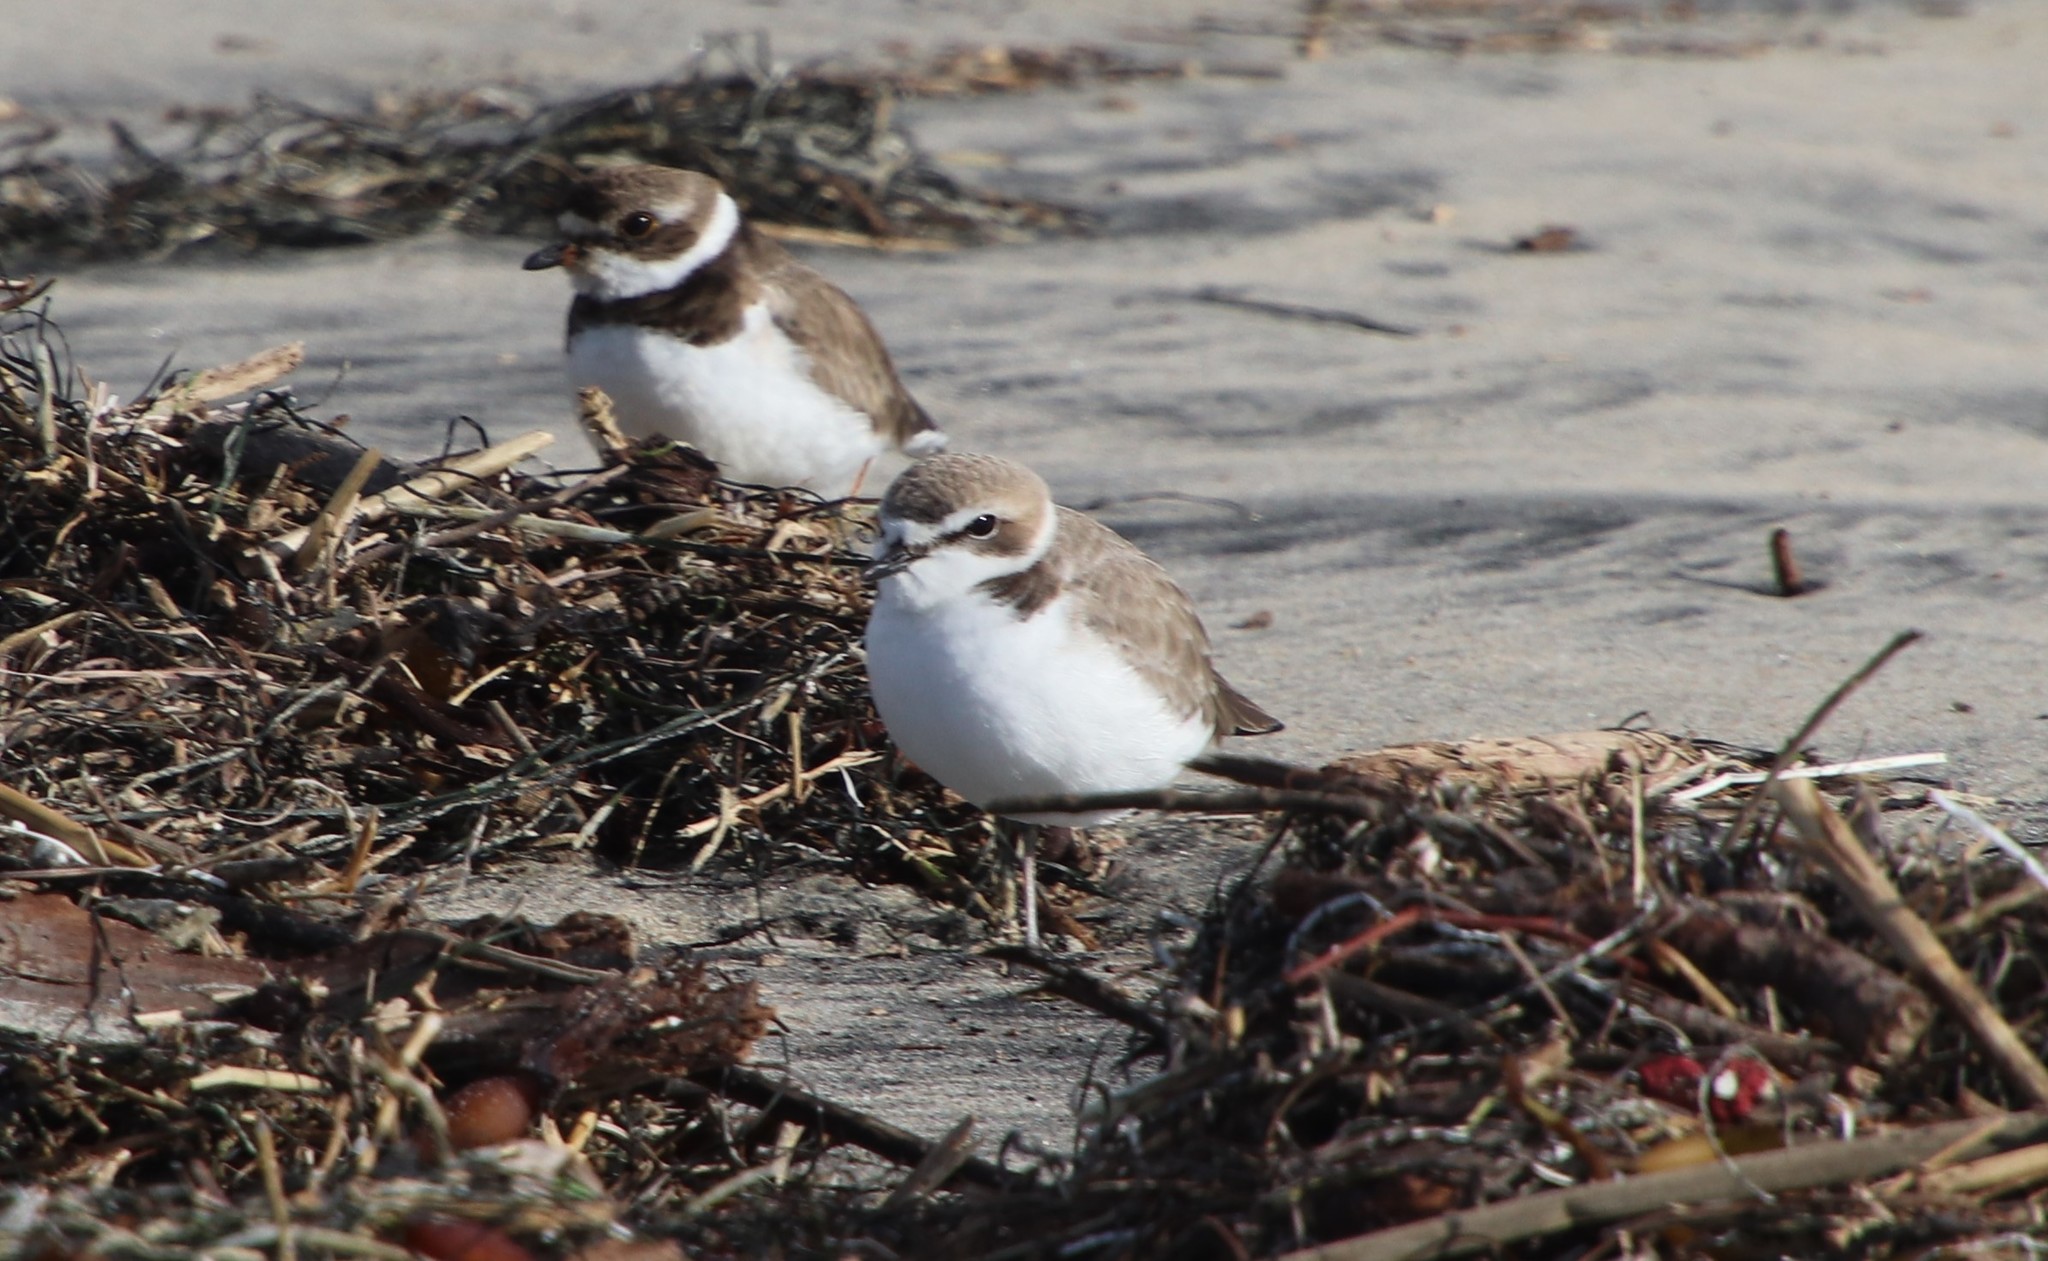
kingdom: Animalia
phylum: Chordata
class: Aves
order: Charadriiformes
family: Charadriidae
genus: Anarhynchus
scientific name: Anarhynchus
